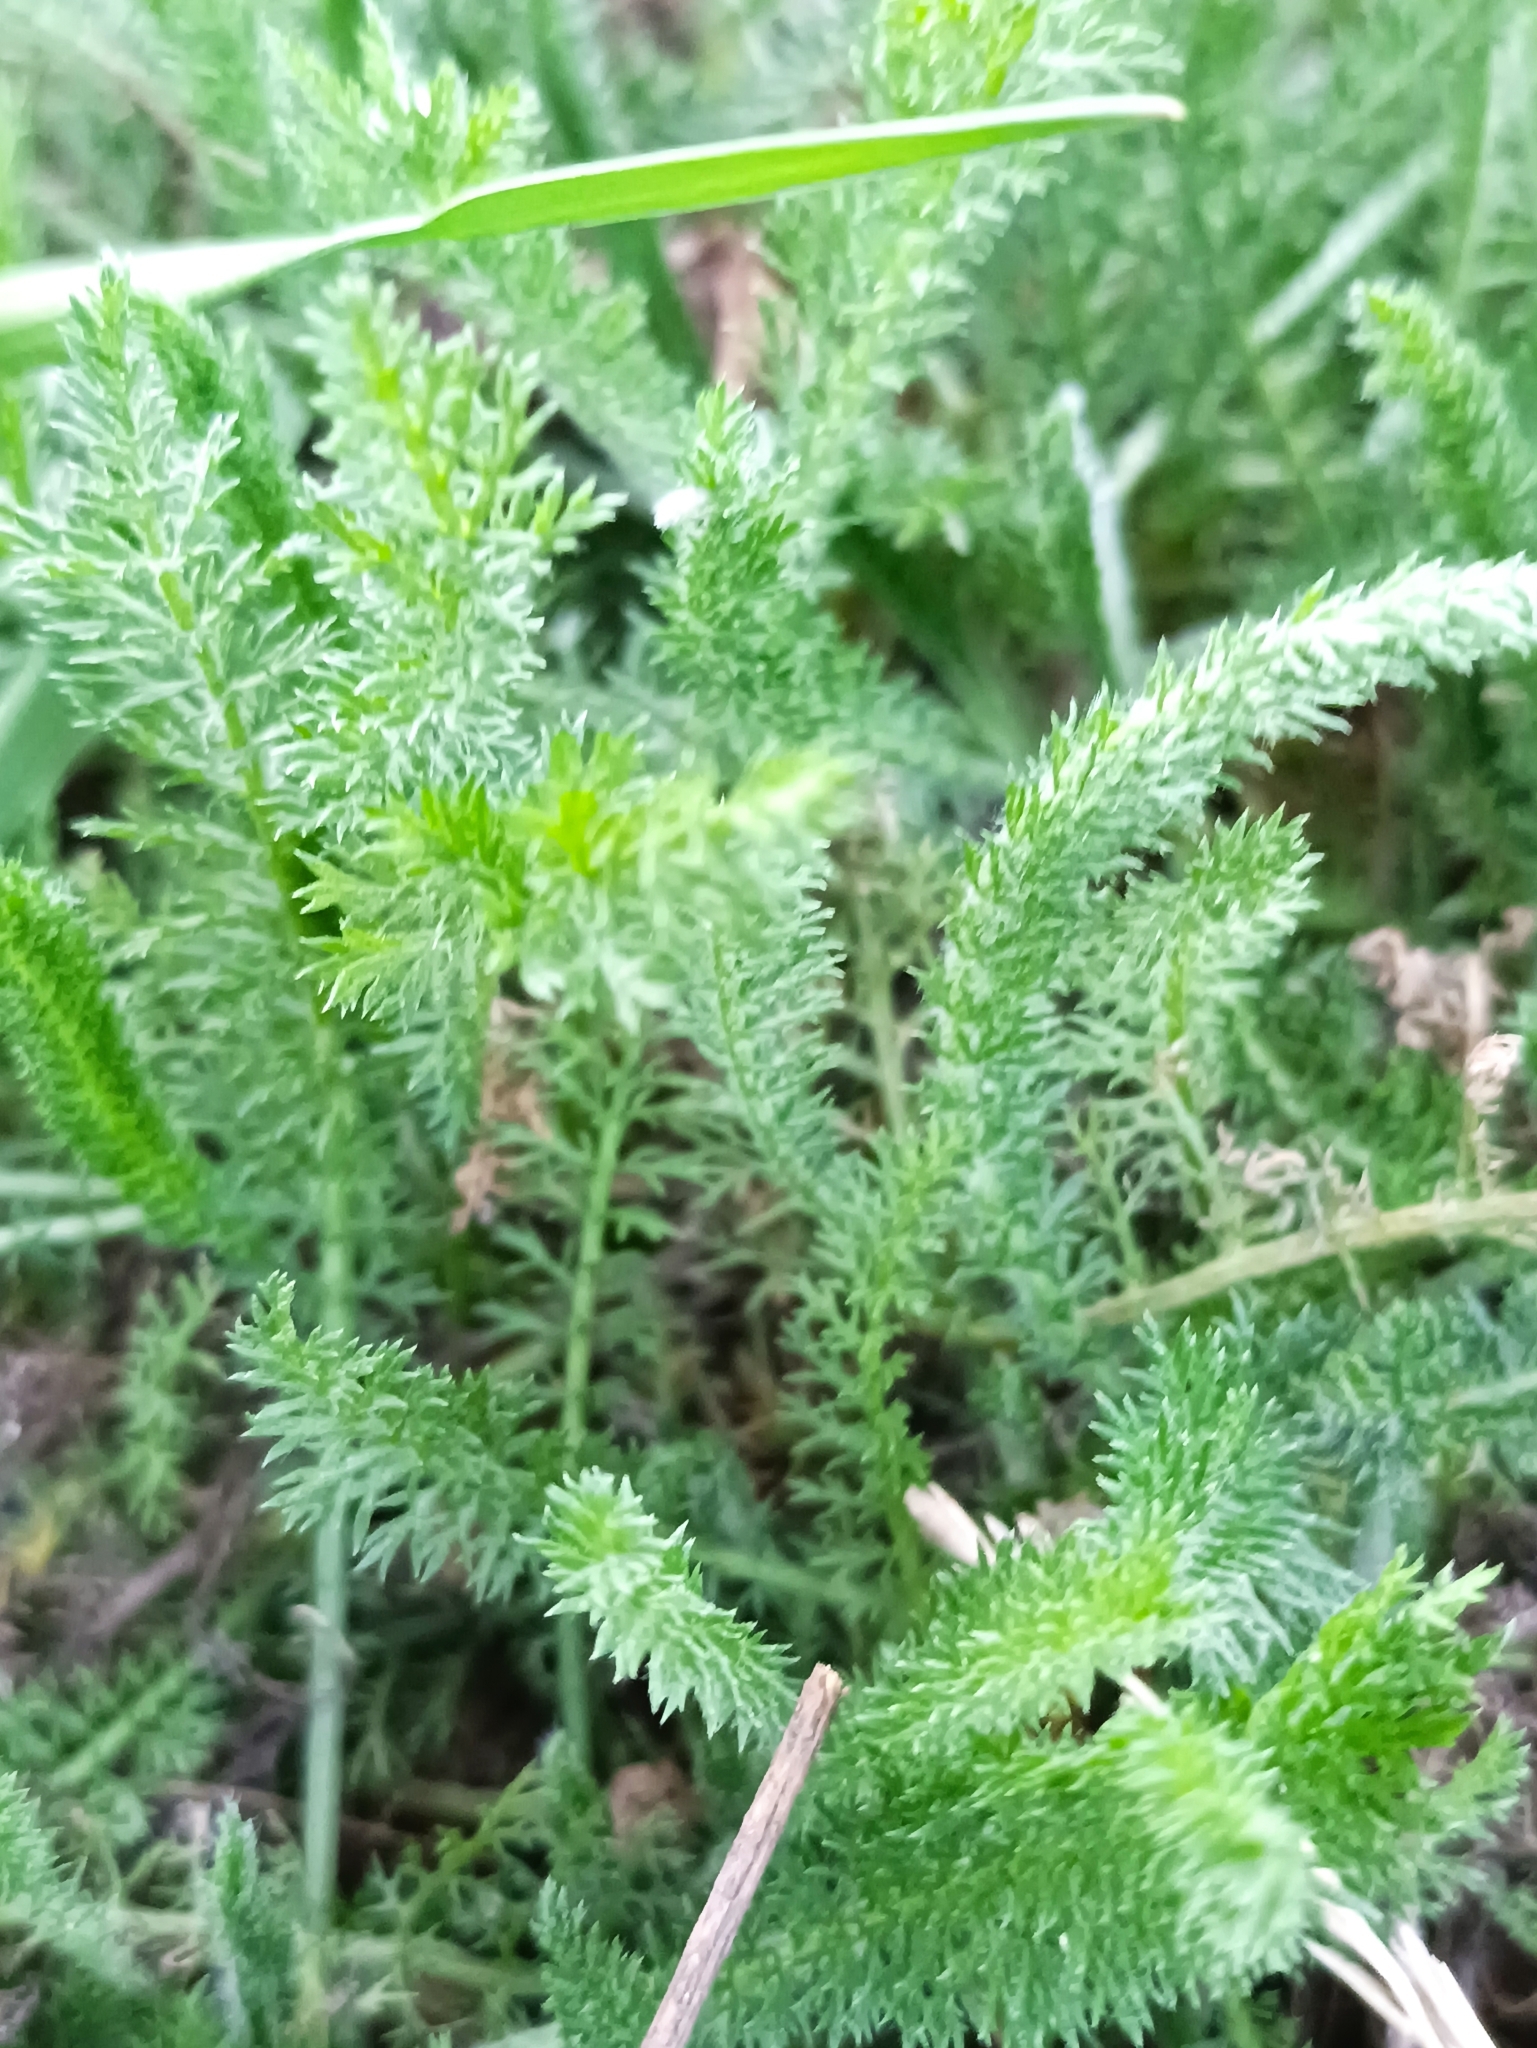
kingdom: Plantae
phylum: Tracheophyta
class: Magnoliopsida
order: Asterales
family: Asteraceae
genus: Achillea
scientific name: Achillea millefolium
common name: Yarrow
